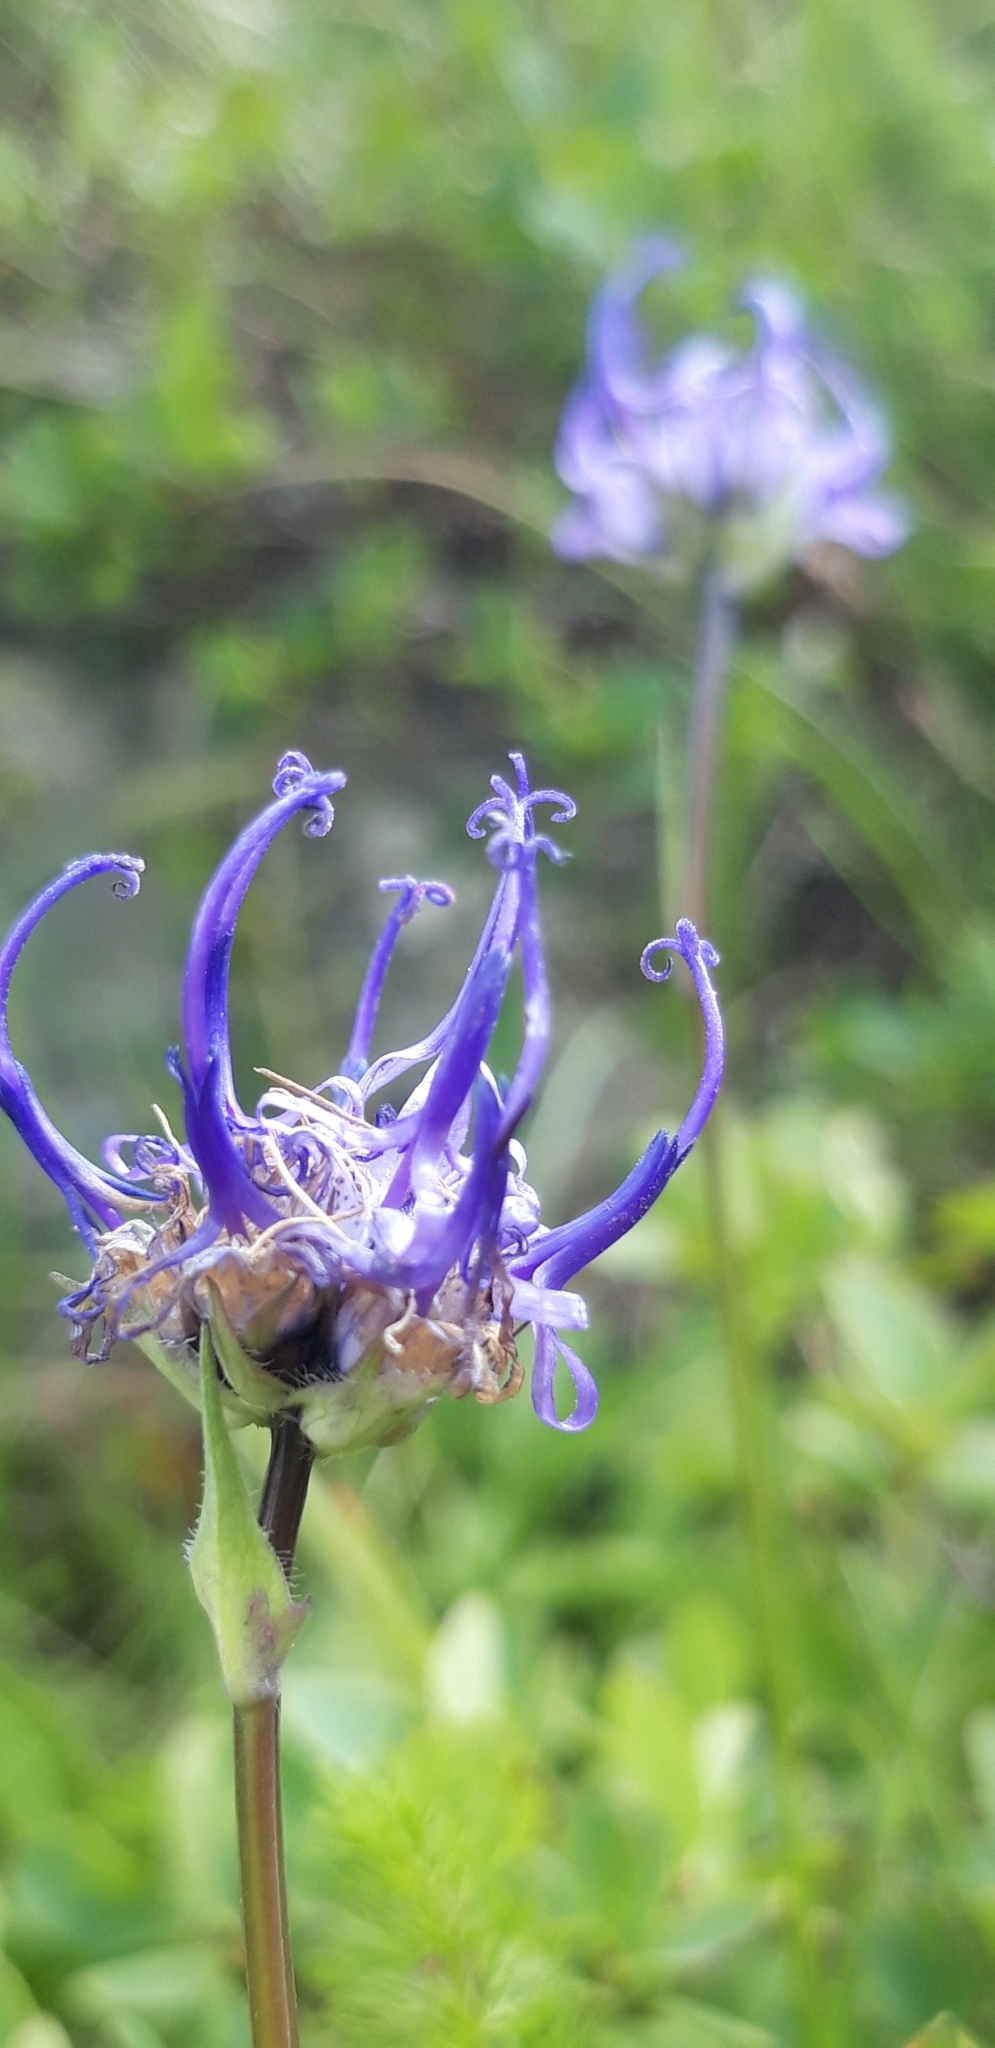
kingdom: Plantae
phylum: Tracheophyta
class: Magnoliopsida
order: Asterales
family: Campanulaceae
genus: Phyteuma
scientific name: Phyteuma hemisphaericum
